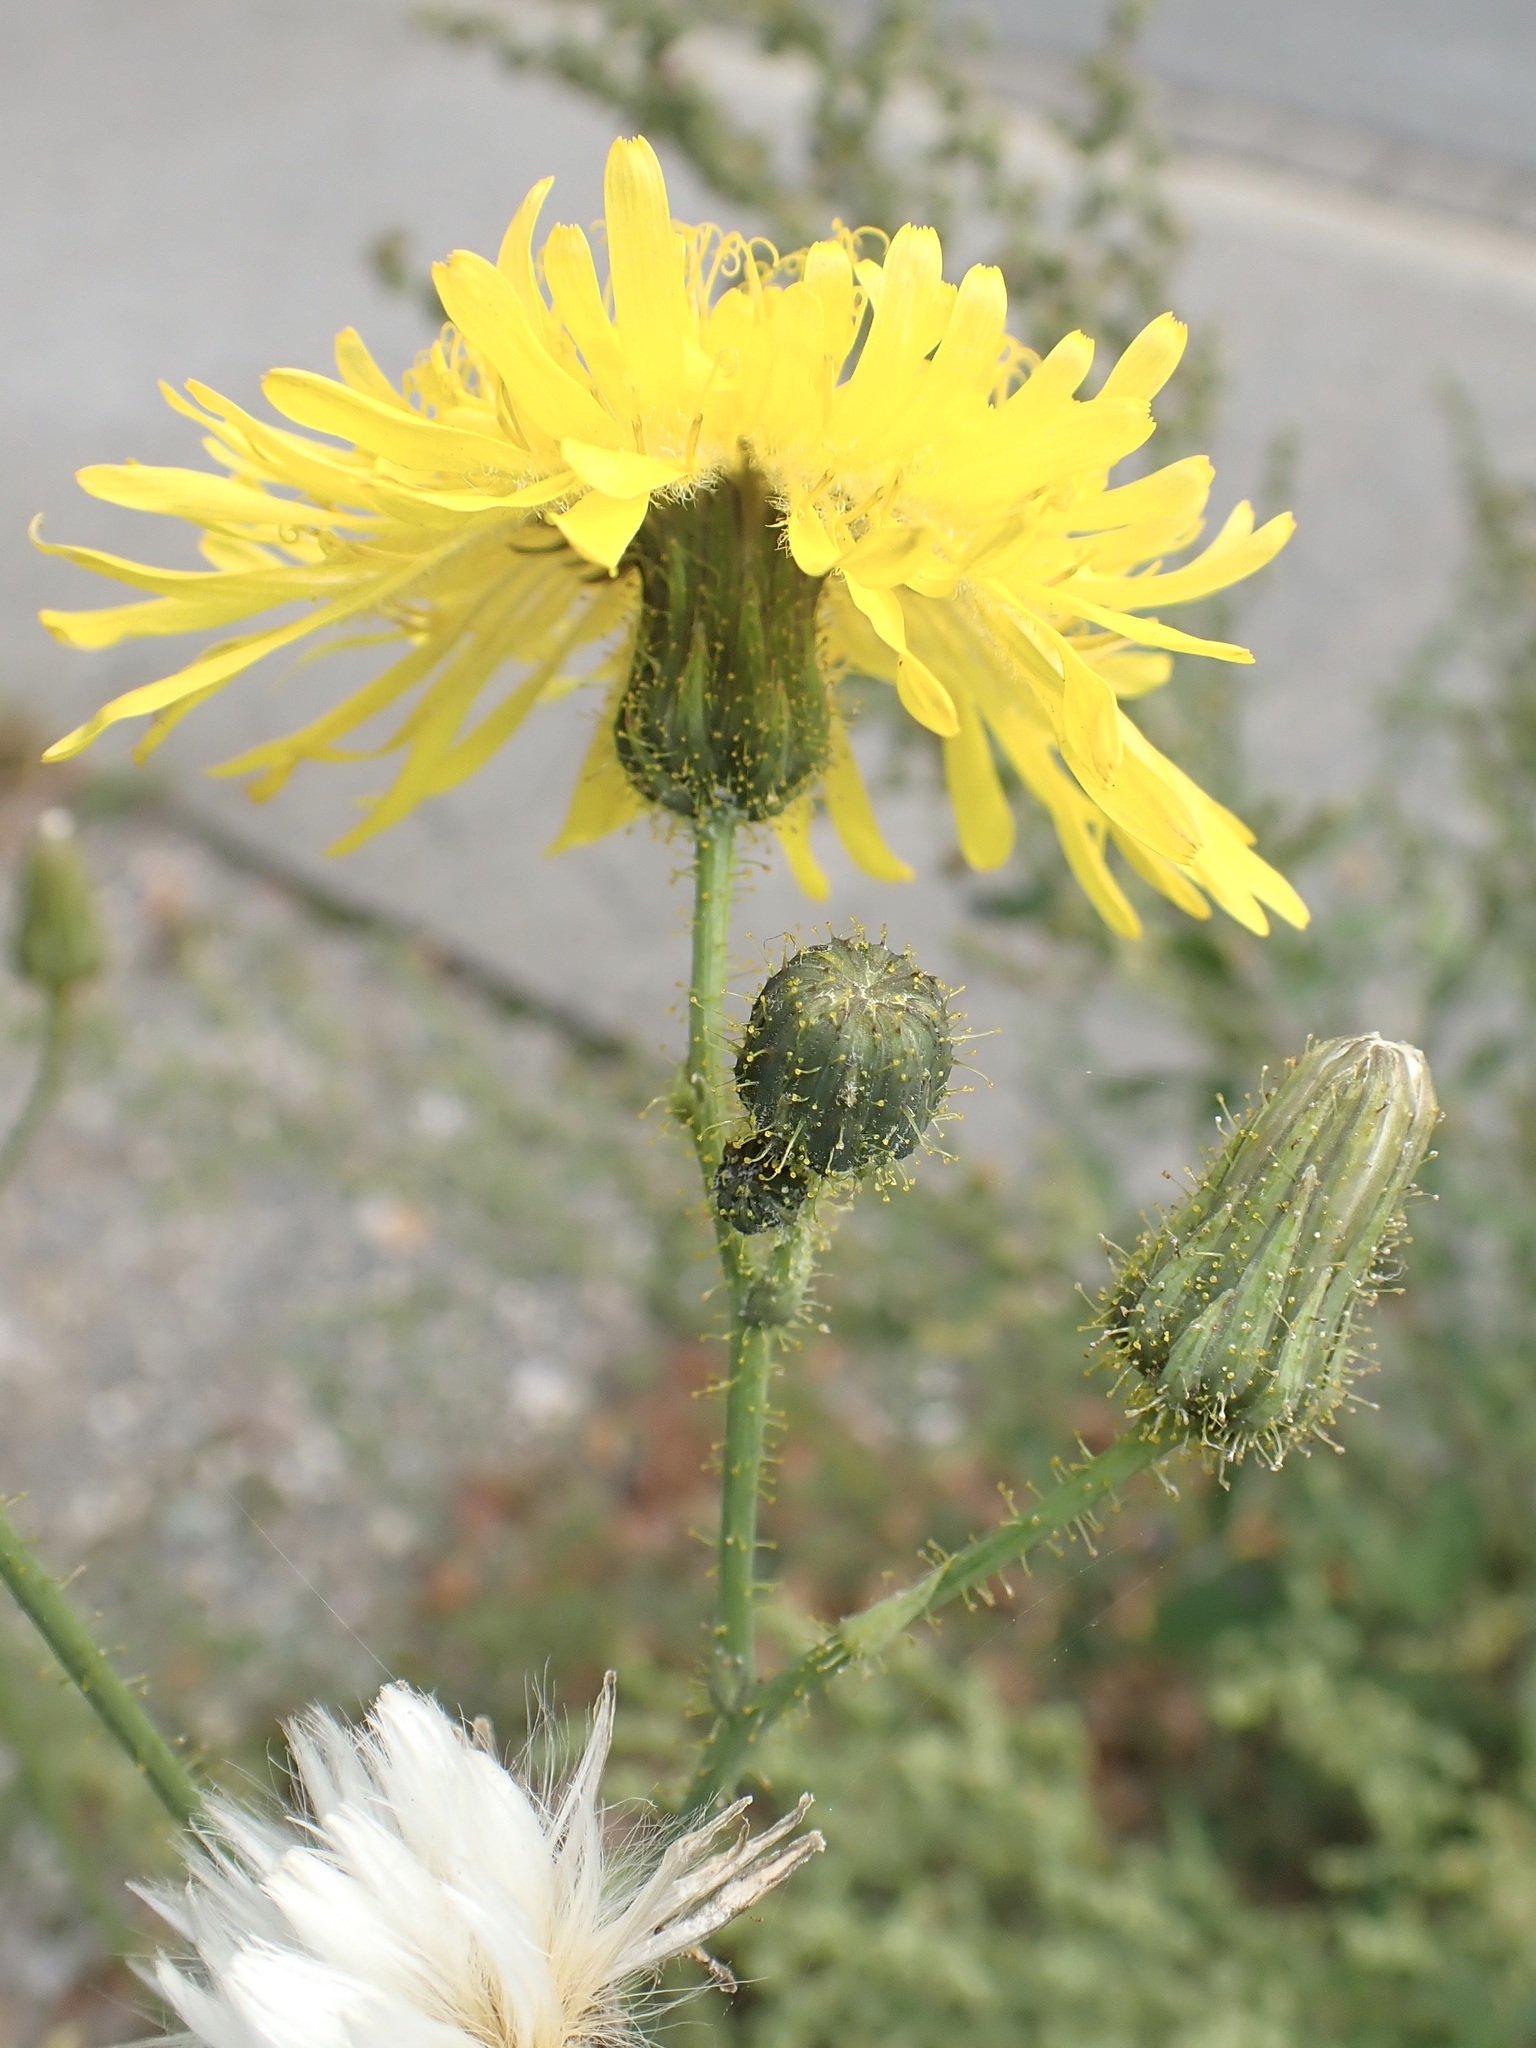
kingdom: Plantae
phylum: Tracheophyta
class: Magnoliopsida
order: Asterales
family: Asteraceae
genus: Sonchus
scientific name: Sonchus arvensis
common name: Perennial sow-thistle
